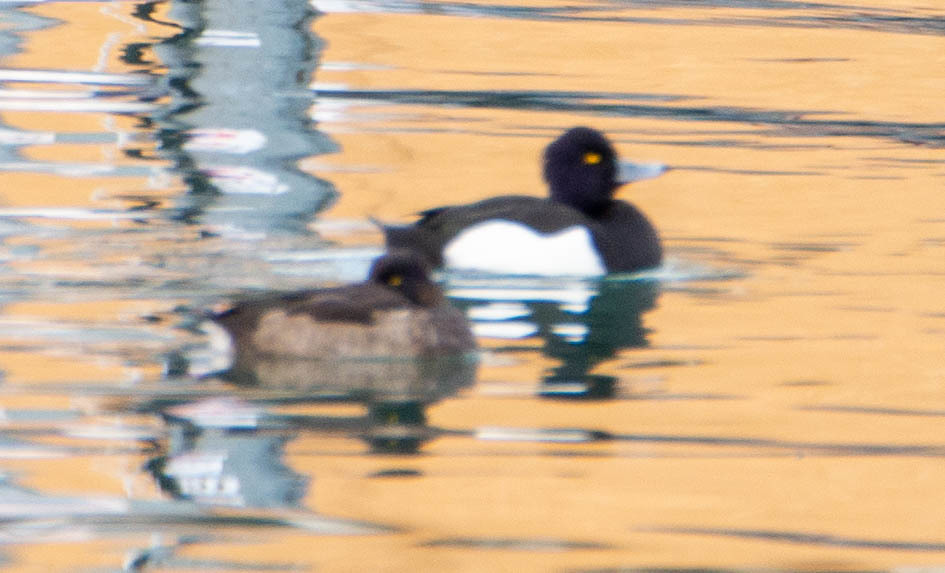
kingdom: Animalia
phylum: Chordata
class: Aves
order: Anseriformes
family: Anatidae
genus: Aythya
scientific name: Aythya fuligula
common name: Tufted duck
